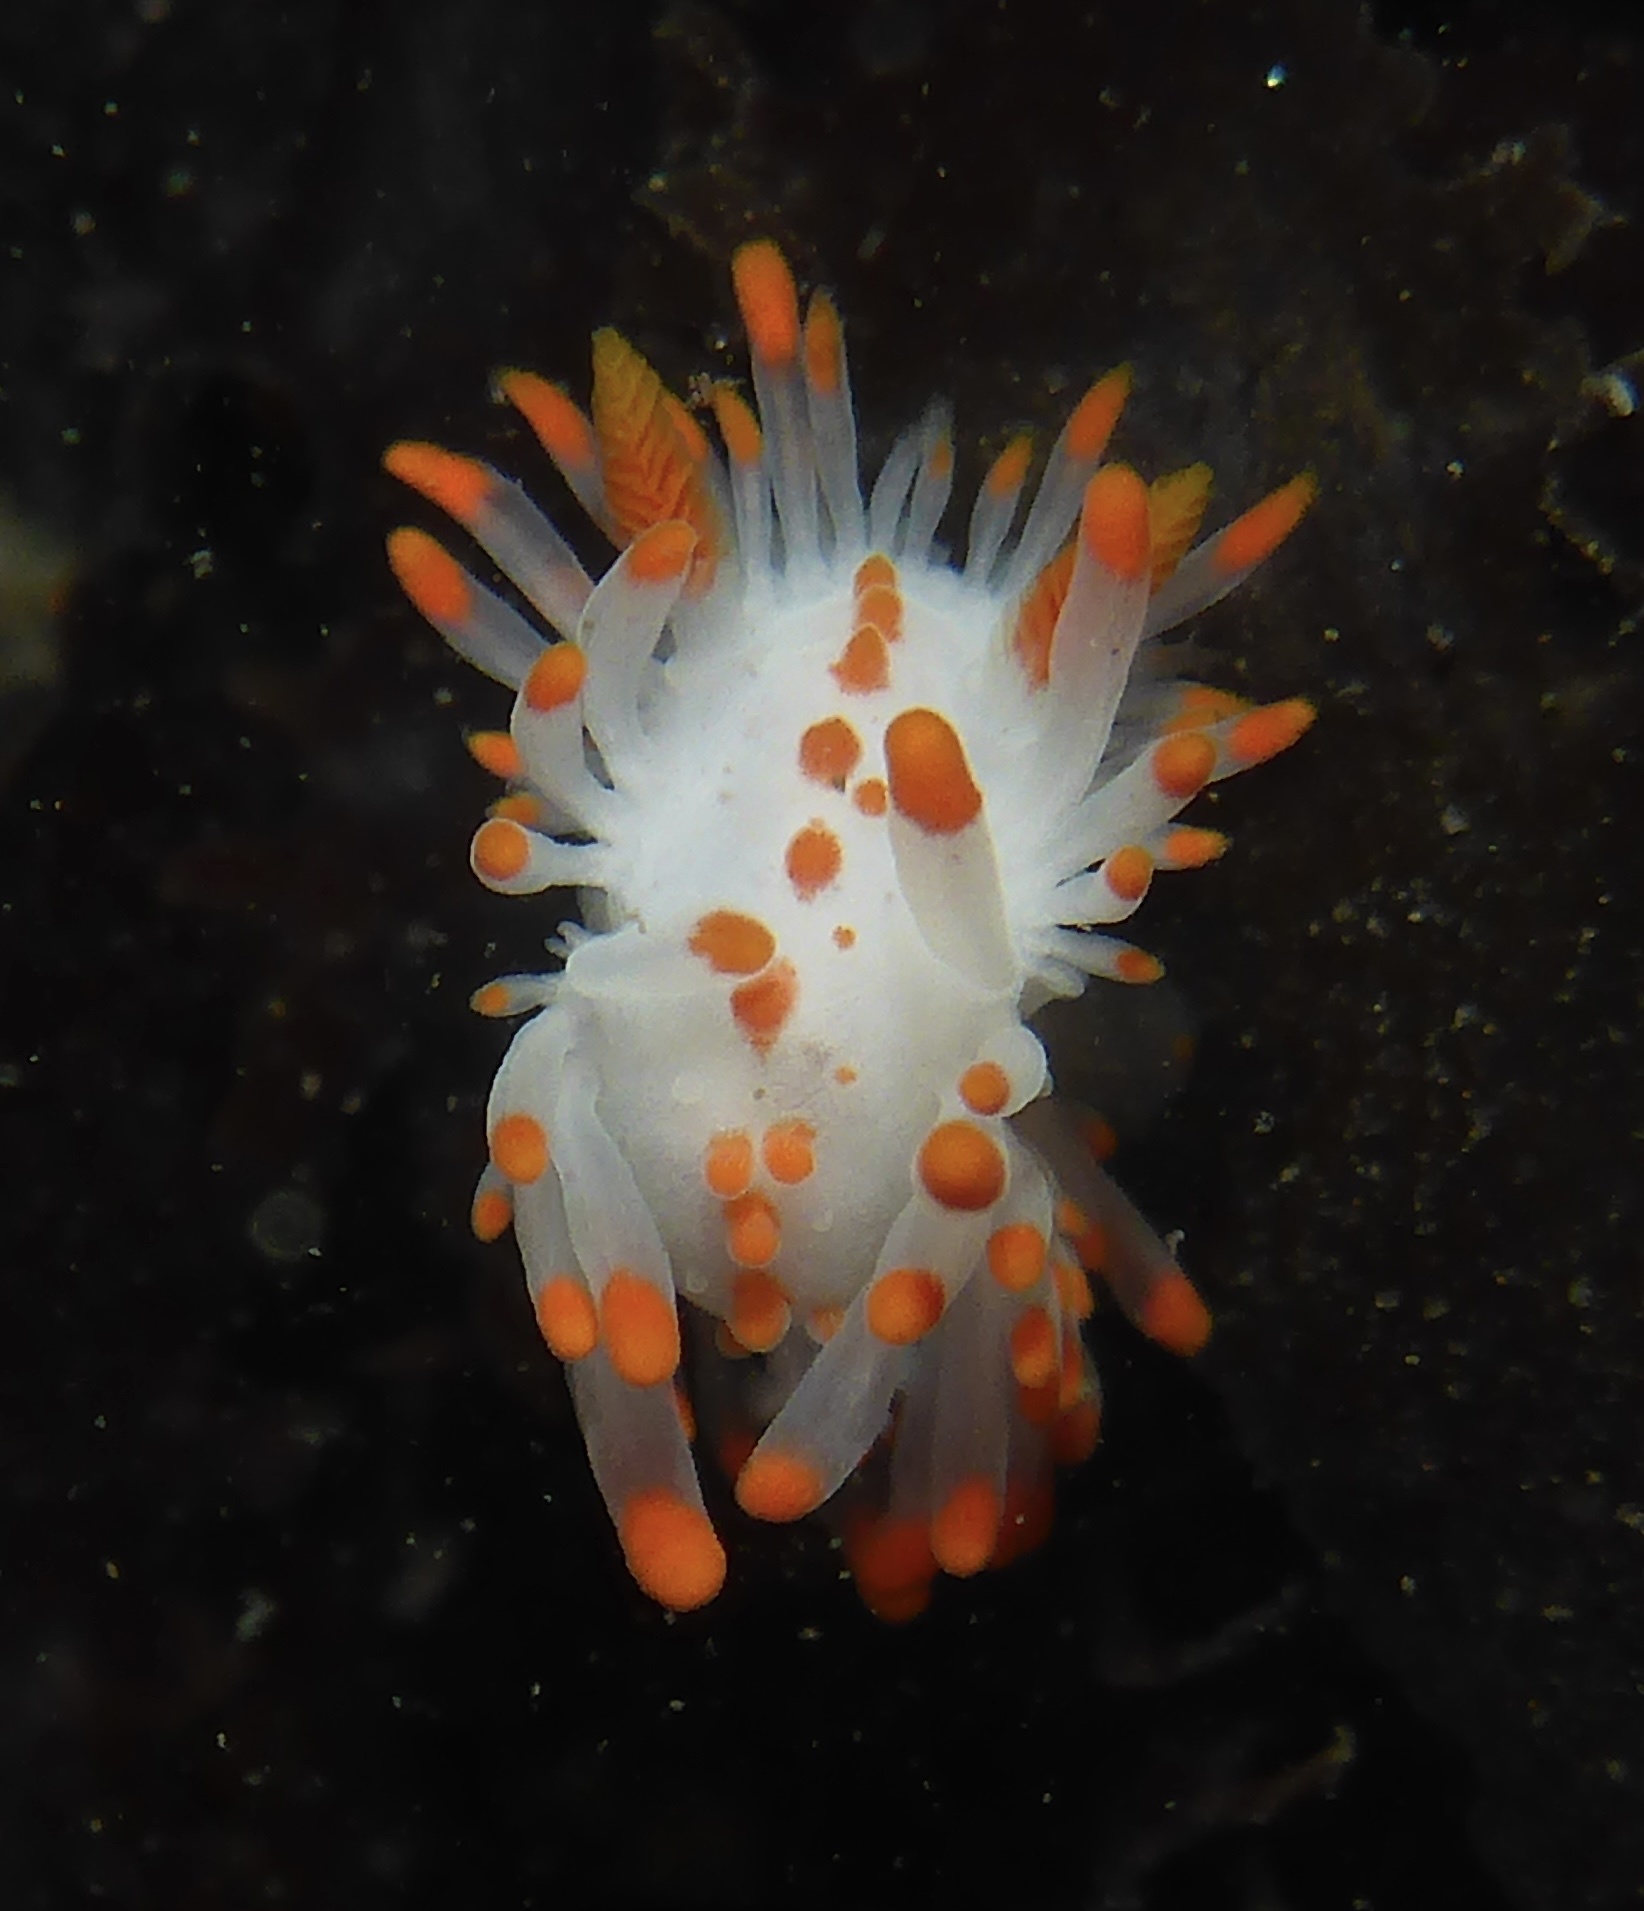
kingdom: Animalia
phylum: Mollusca
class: Gastropoda
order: Nudibranchia
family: Polyceridae
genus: Limacia
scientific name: Limacia mcdonaldi
